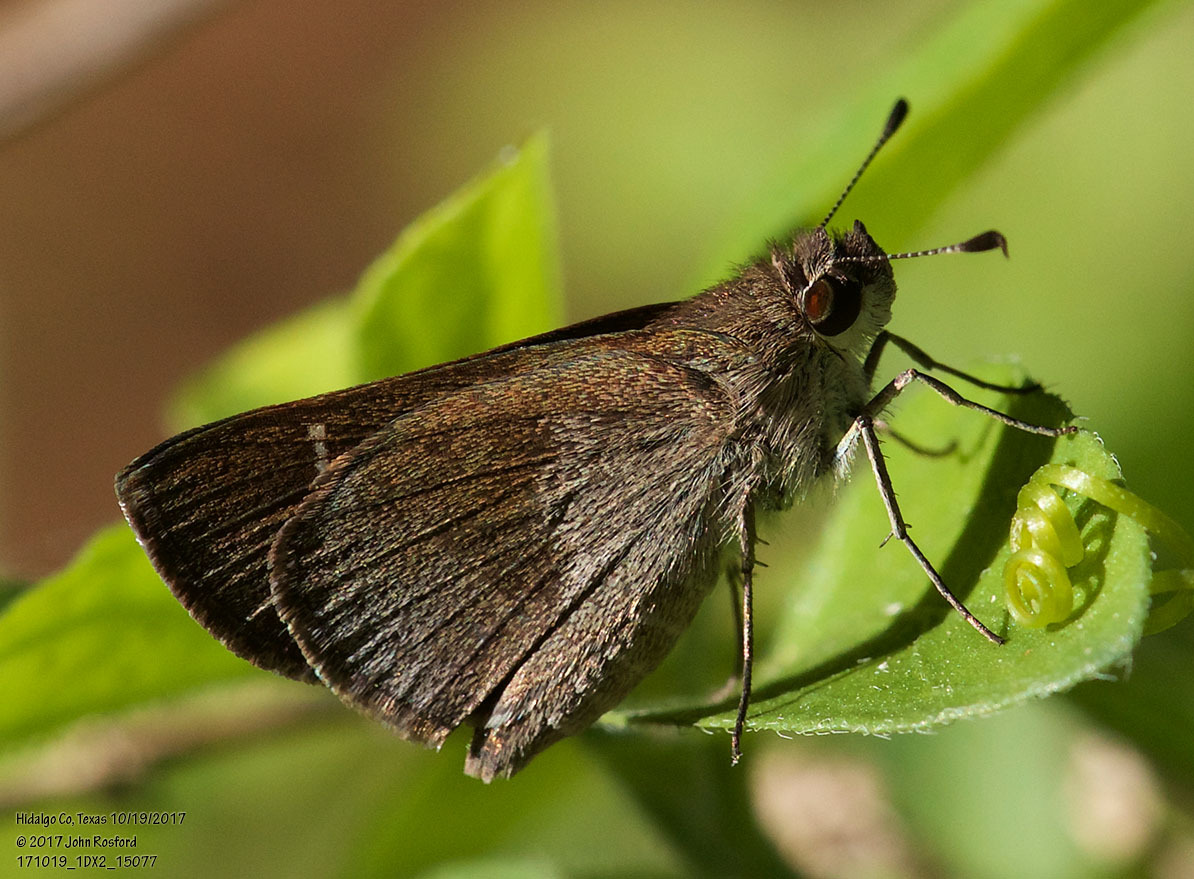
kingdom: Animalia
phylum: Arthropoda
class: Insecta
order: Lepidoptera
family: Hesperiidae
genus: Lerodea
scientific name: Lerodea arabus
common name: Violet-clouded skipper
